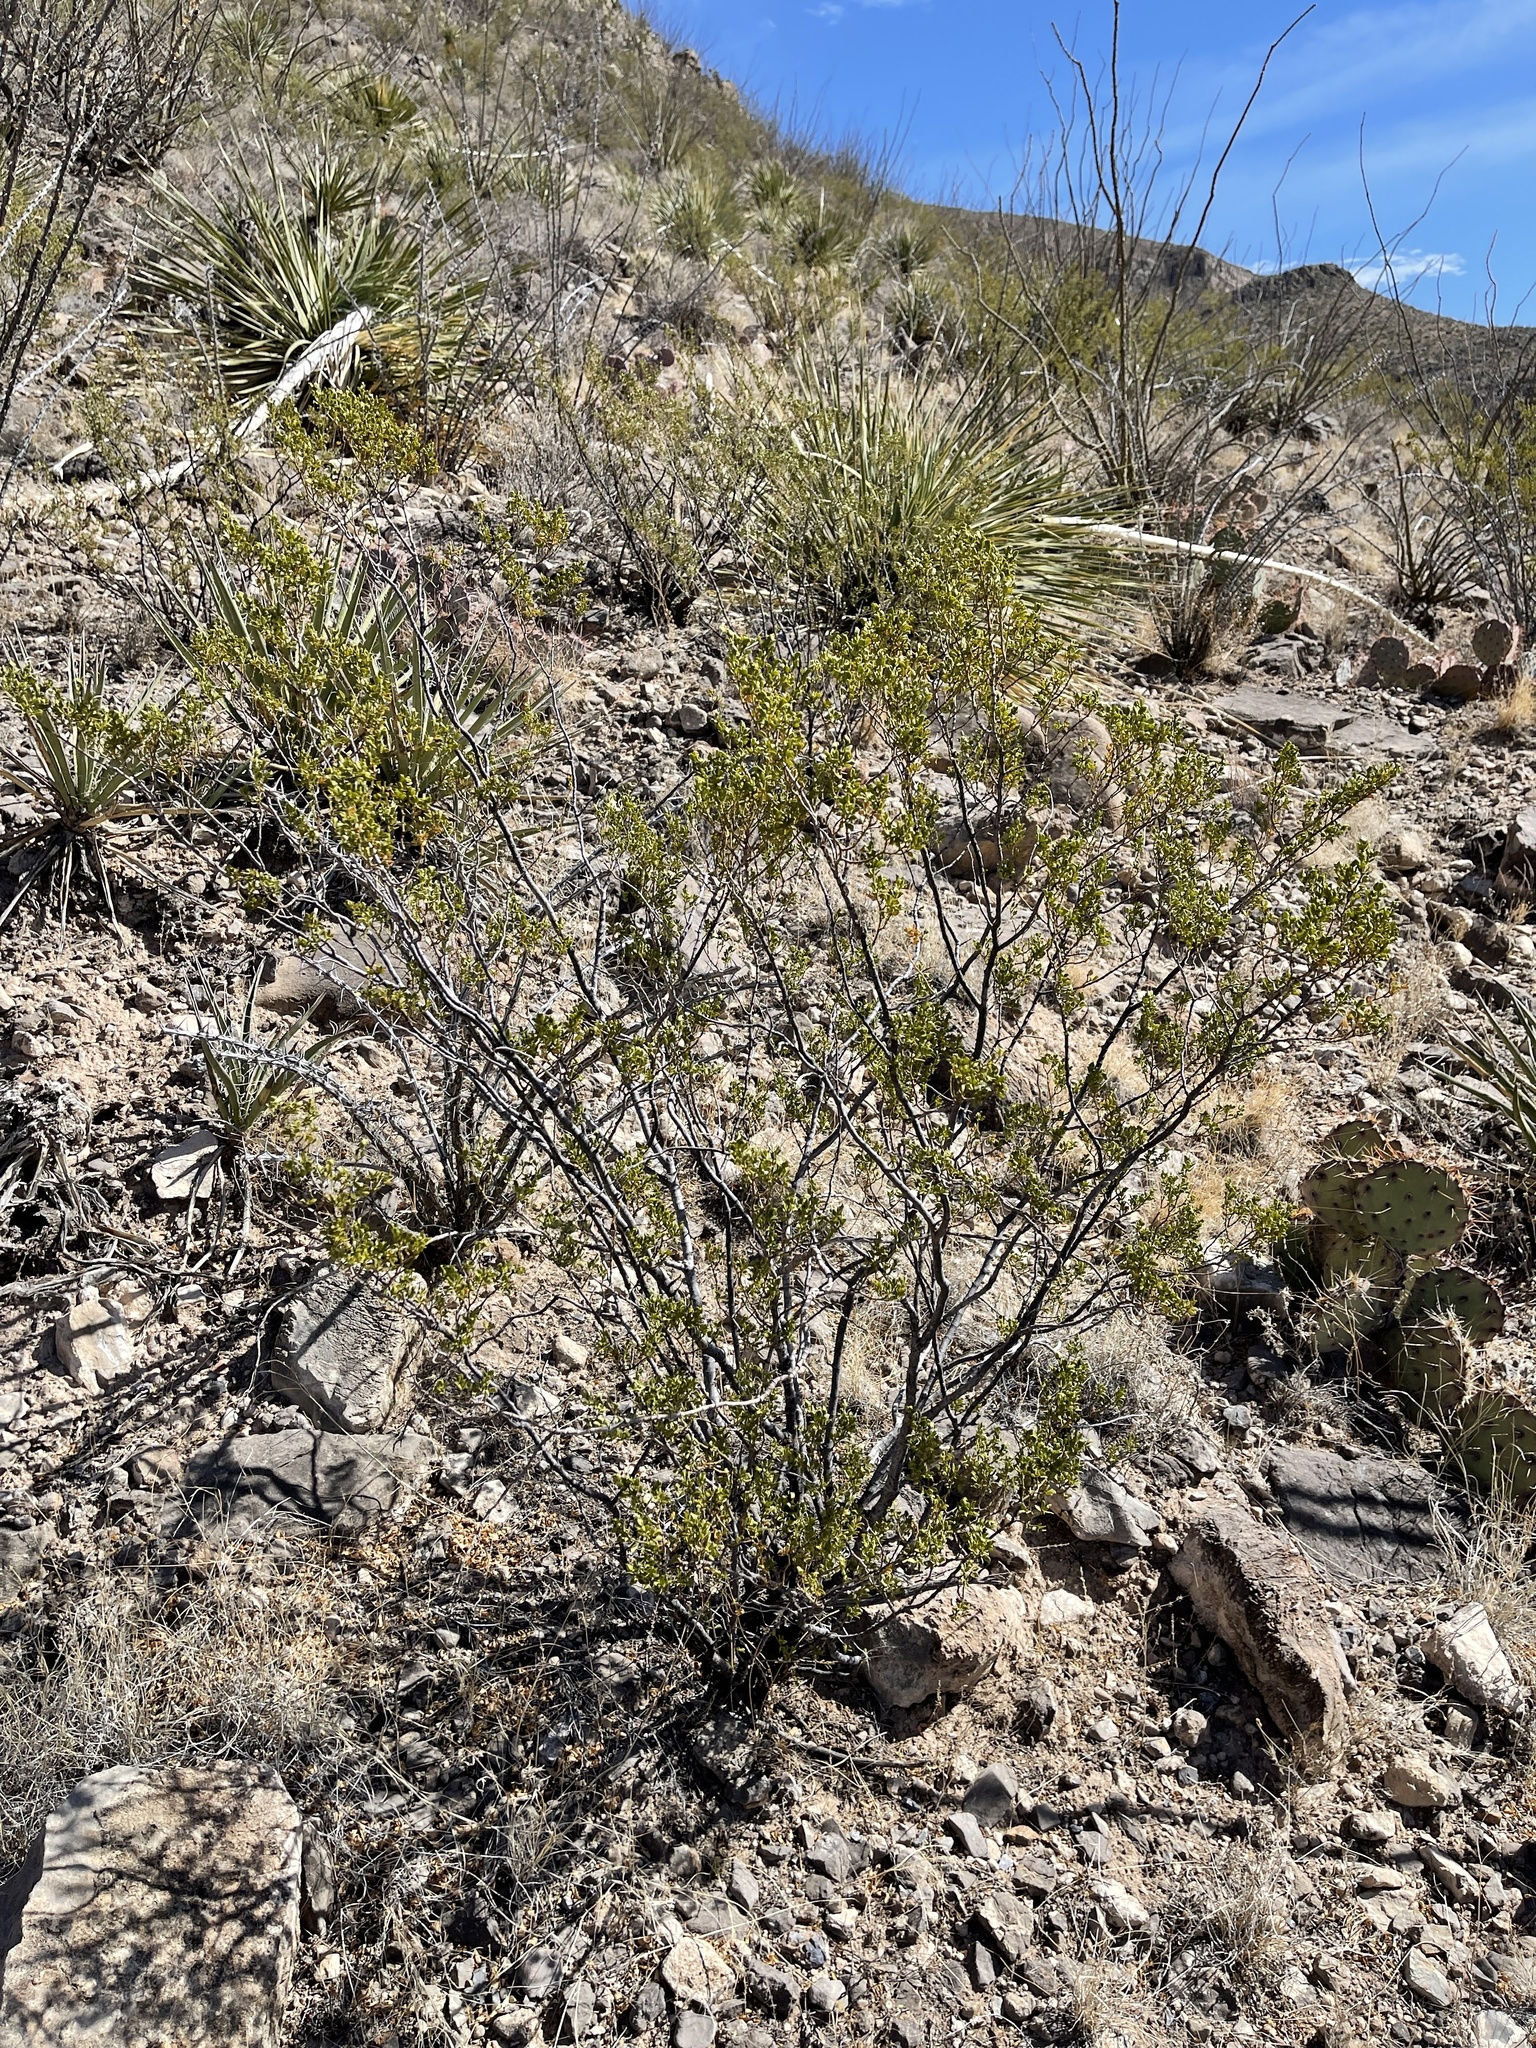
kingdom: Plantae
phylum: Tracheophyta
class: Magnoliopsida
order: Zygophyllales
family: Zygophyllaceae
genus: Larrea
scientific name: Larrea tridentata
